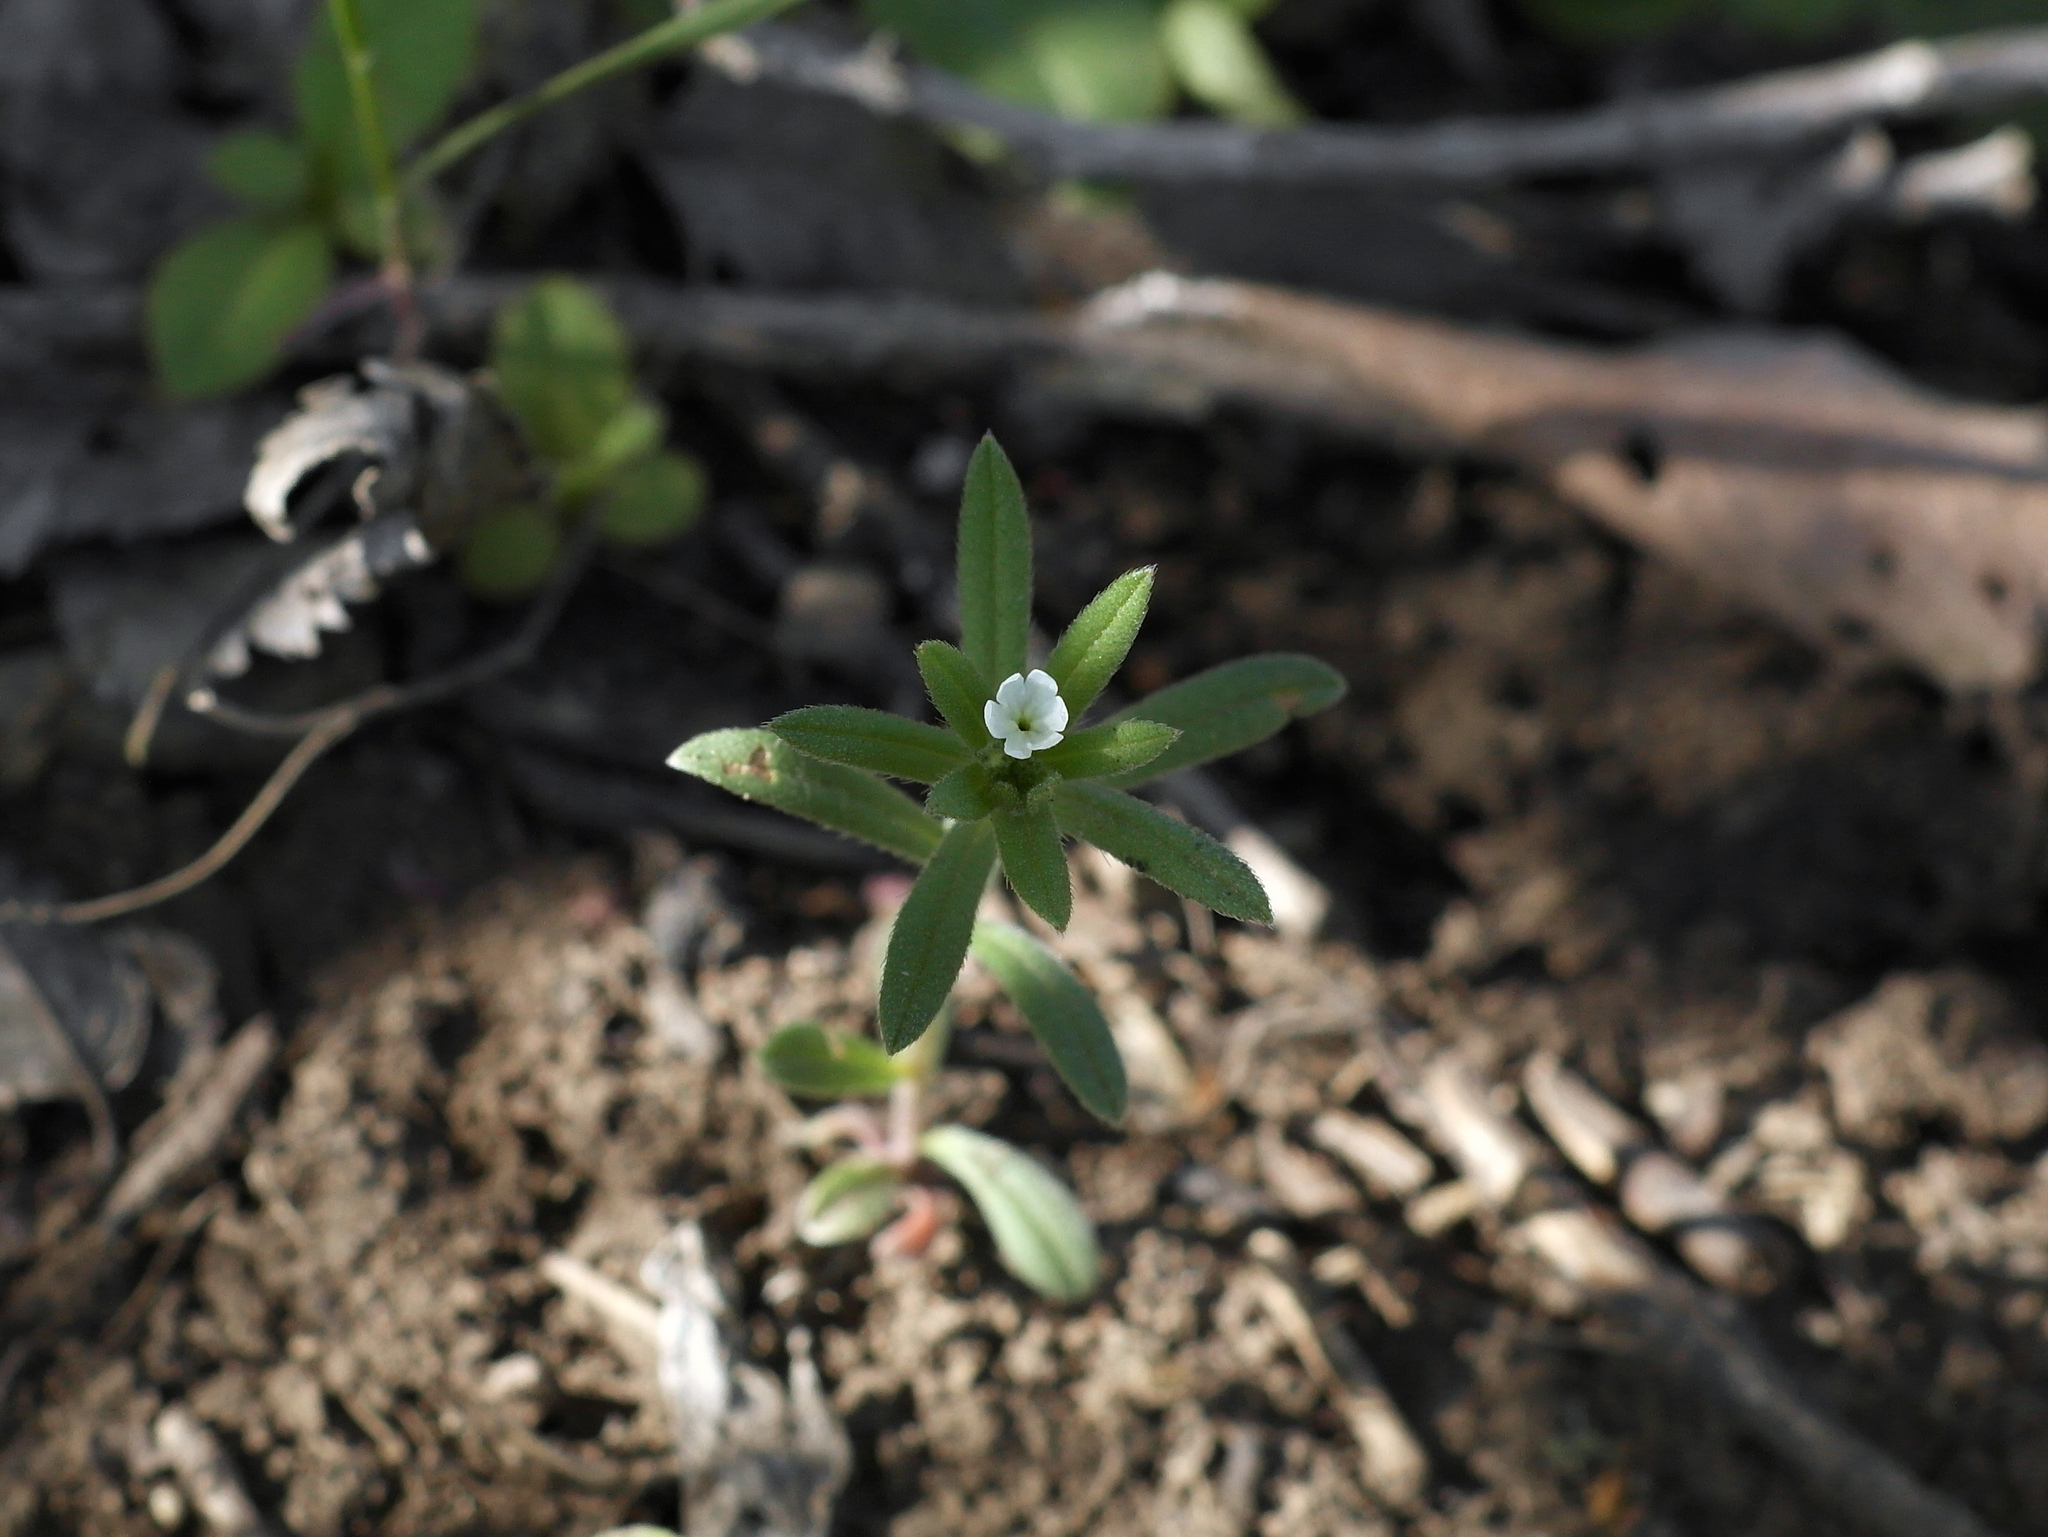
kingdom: Plantae
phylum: Tracheophyta
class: Magnoliopsida
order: Boraginales
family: Boraginaceae
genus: Buglossoides
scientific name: Buglossoides arvensis
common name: Corn gromwell
